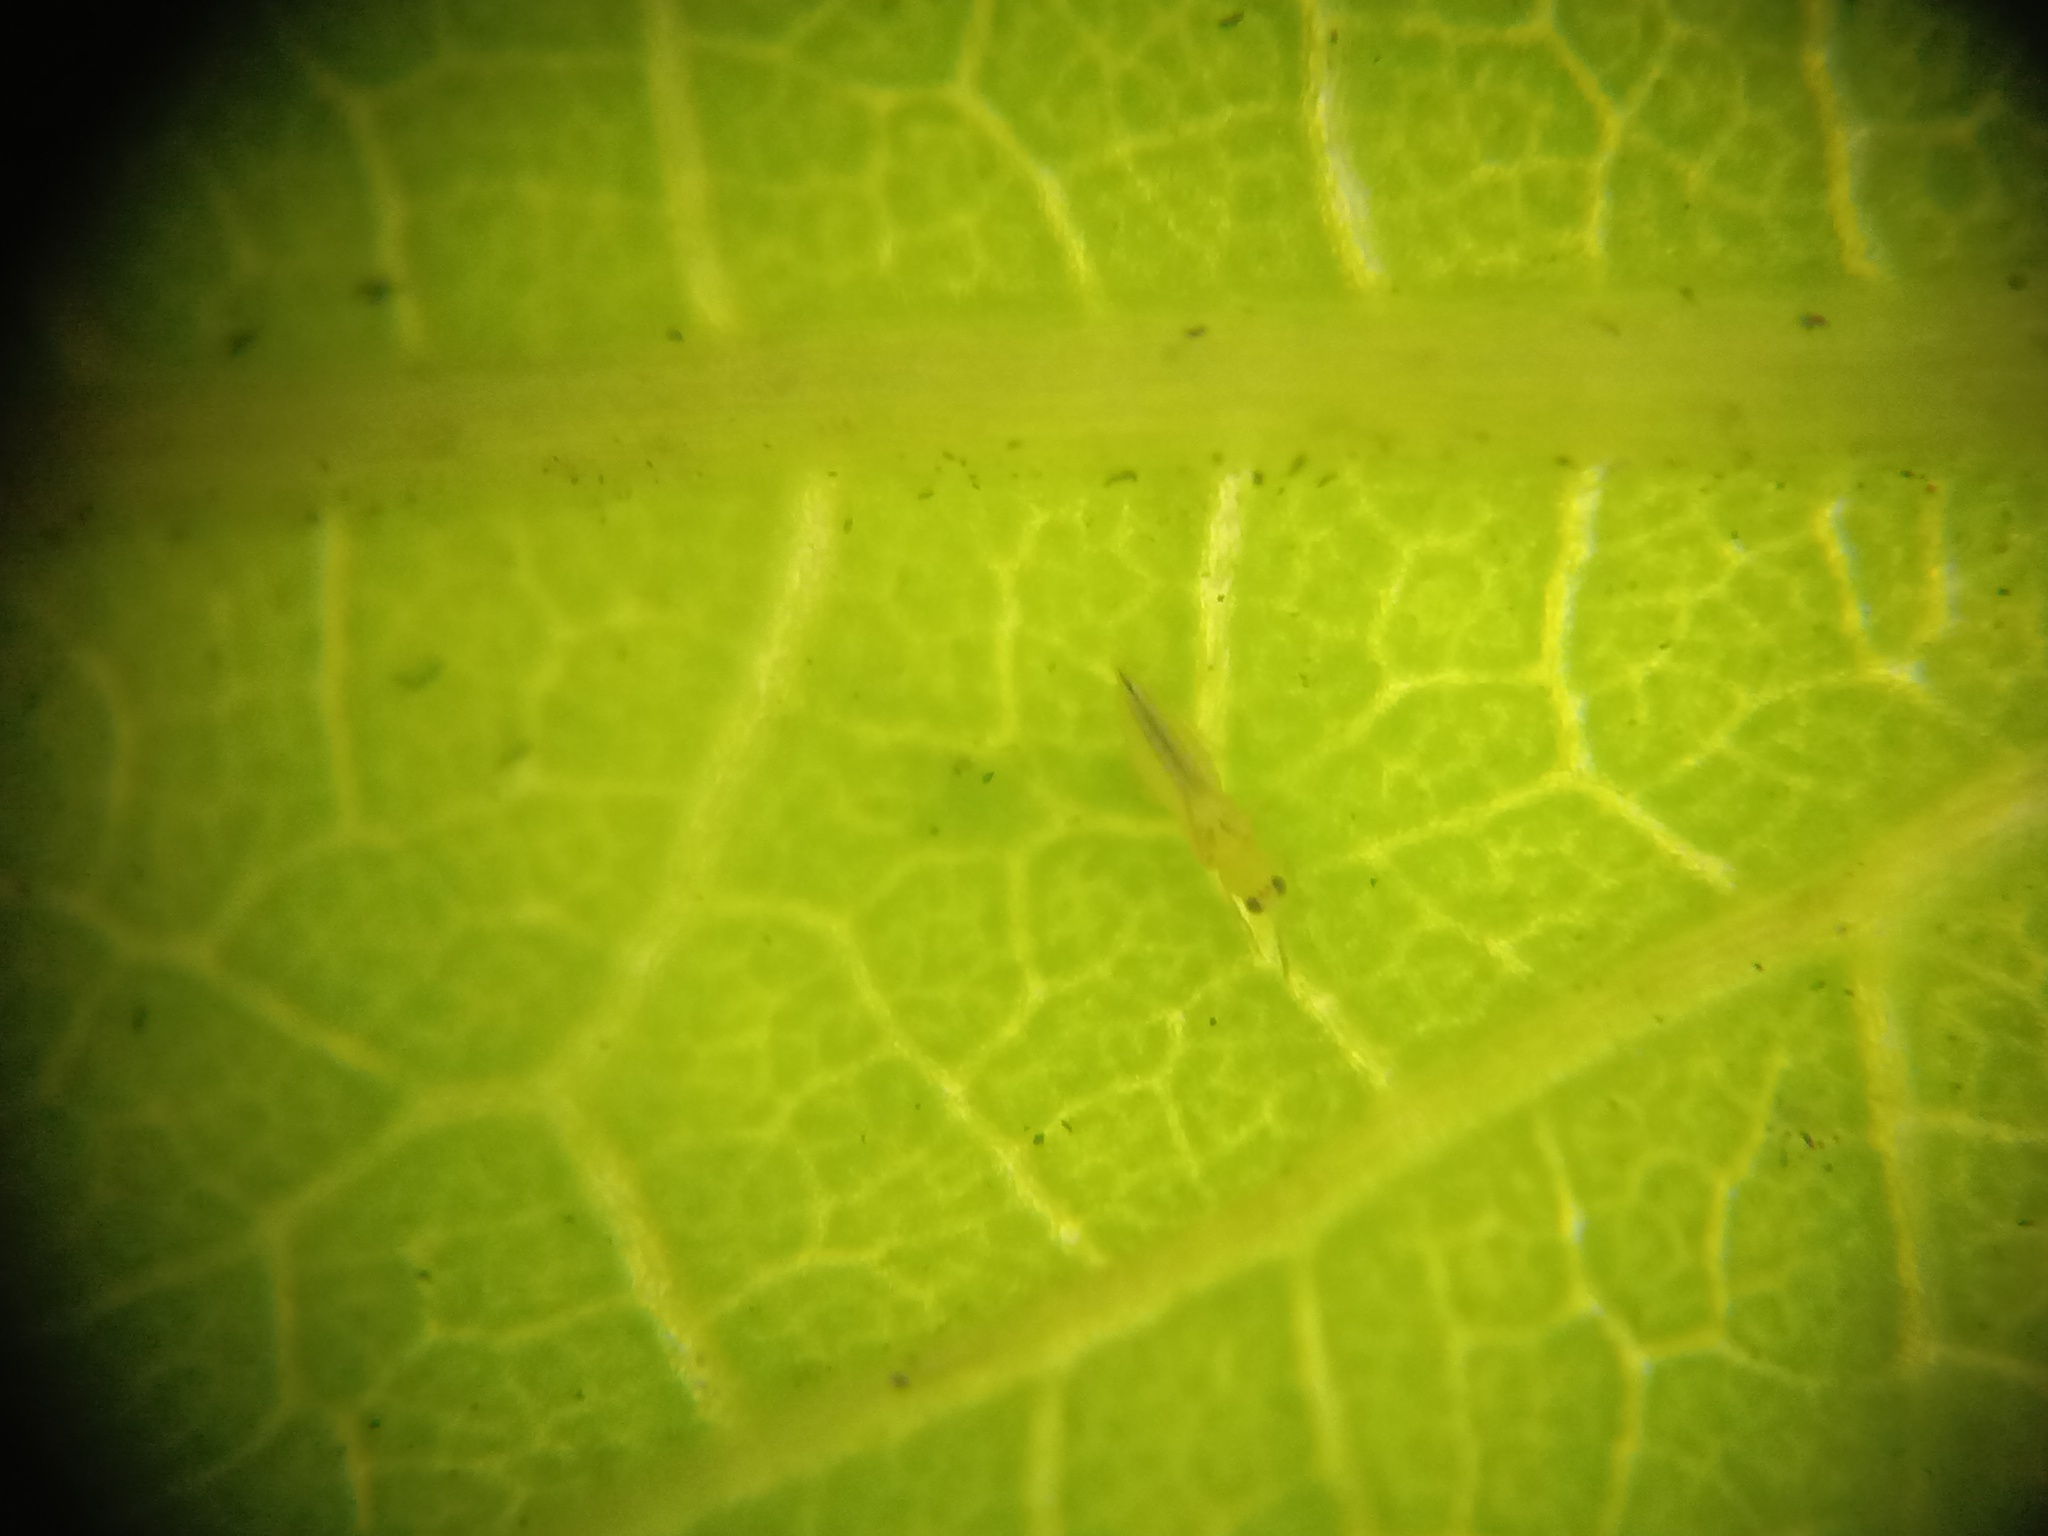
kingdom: Animalia
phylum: Arthropoda
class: Insecta
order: Thysanoptera
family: Thripidae
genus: Scirtothrips
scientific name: Scirtothrips dorsalis
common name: Thrips
